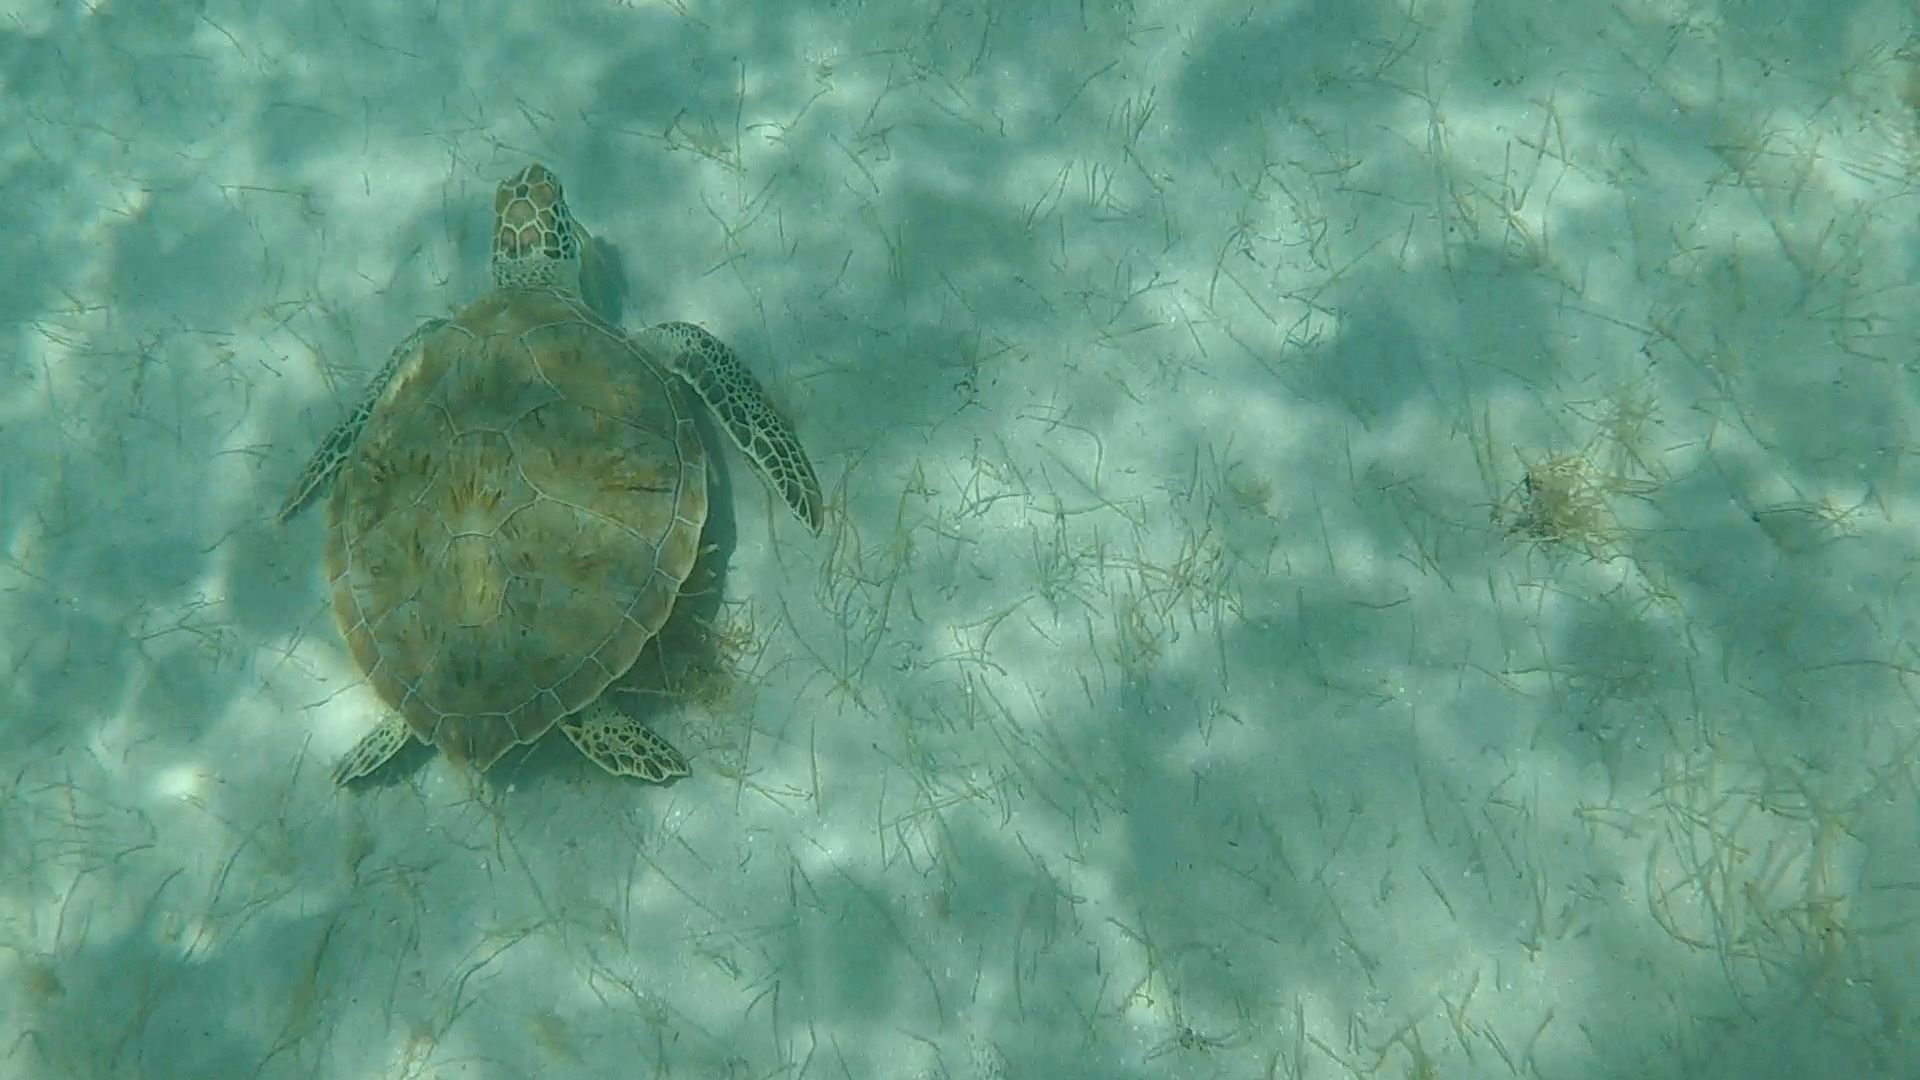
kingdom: Animalia
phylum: Chordata
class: Testudines
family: Cheloniidae
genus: Chelonia
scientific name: Chelonia mydas
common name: Green turtle
